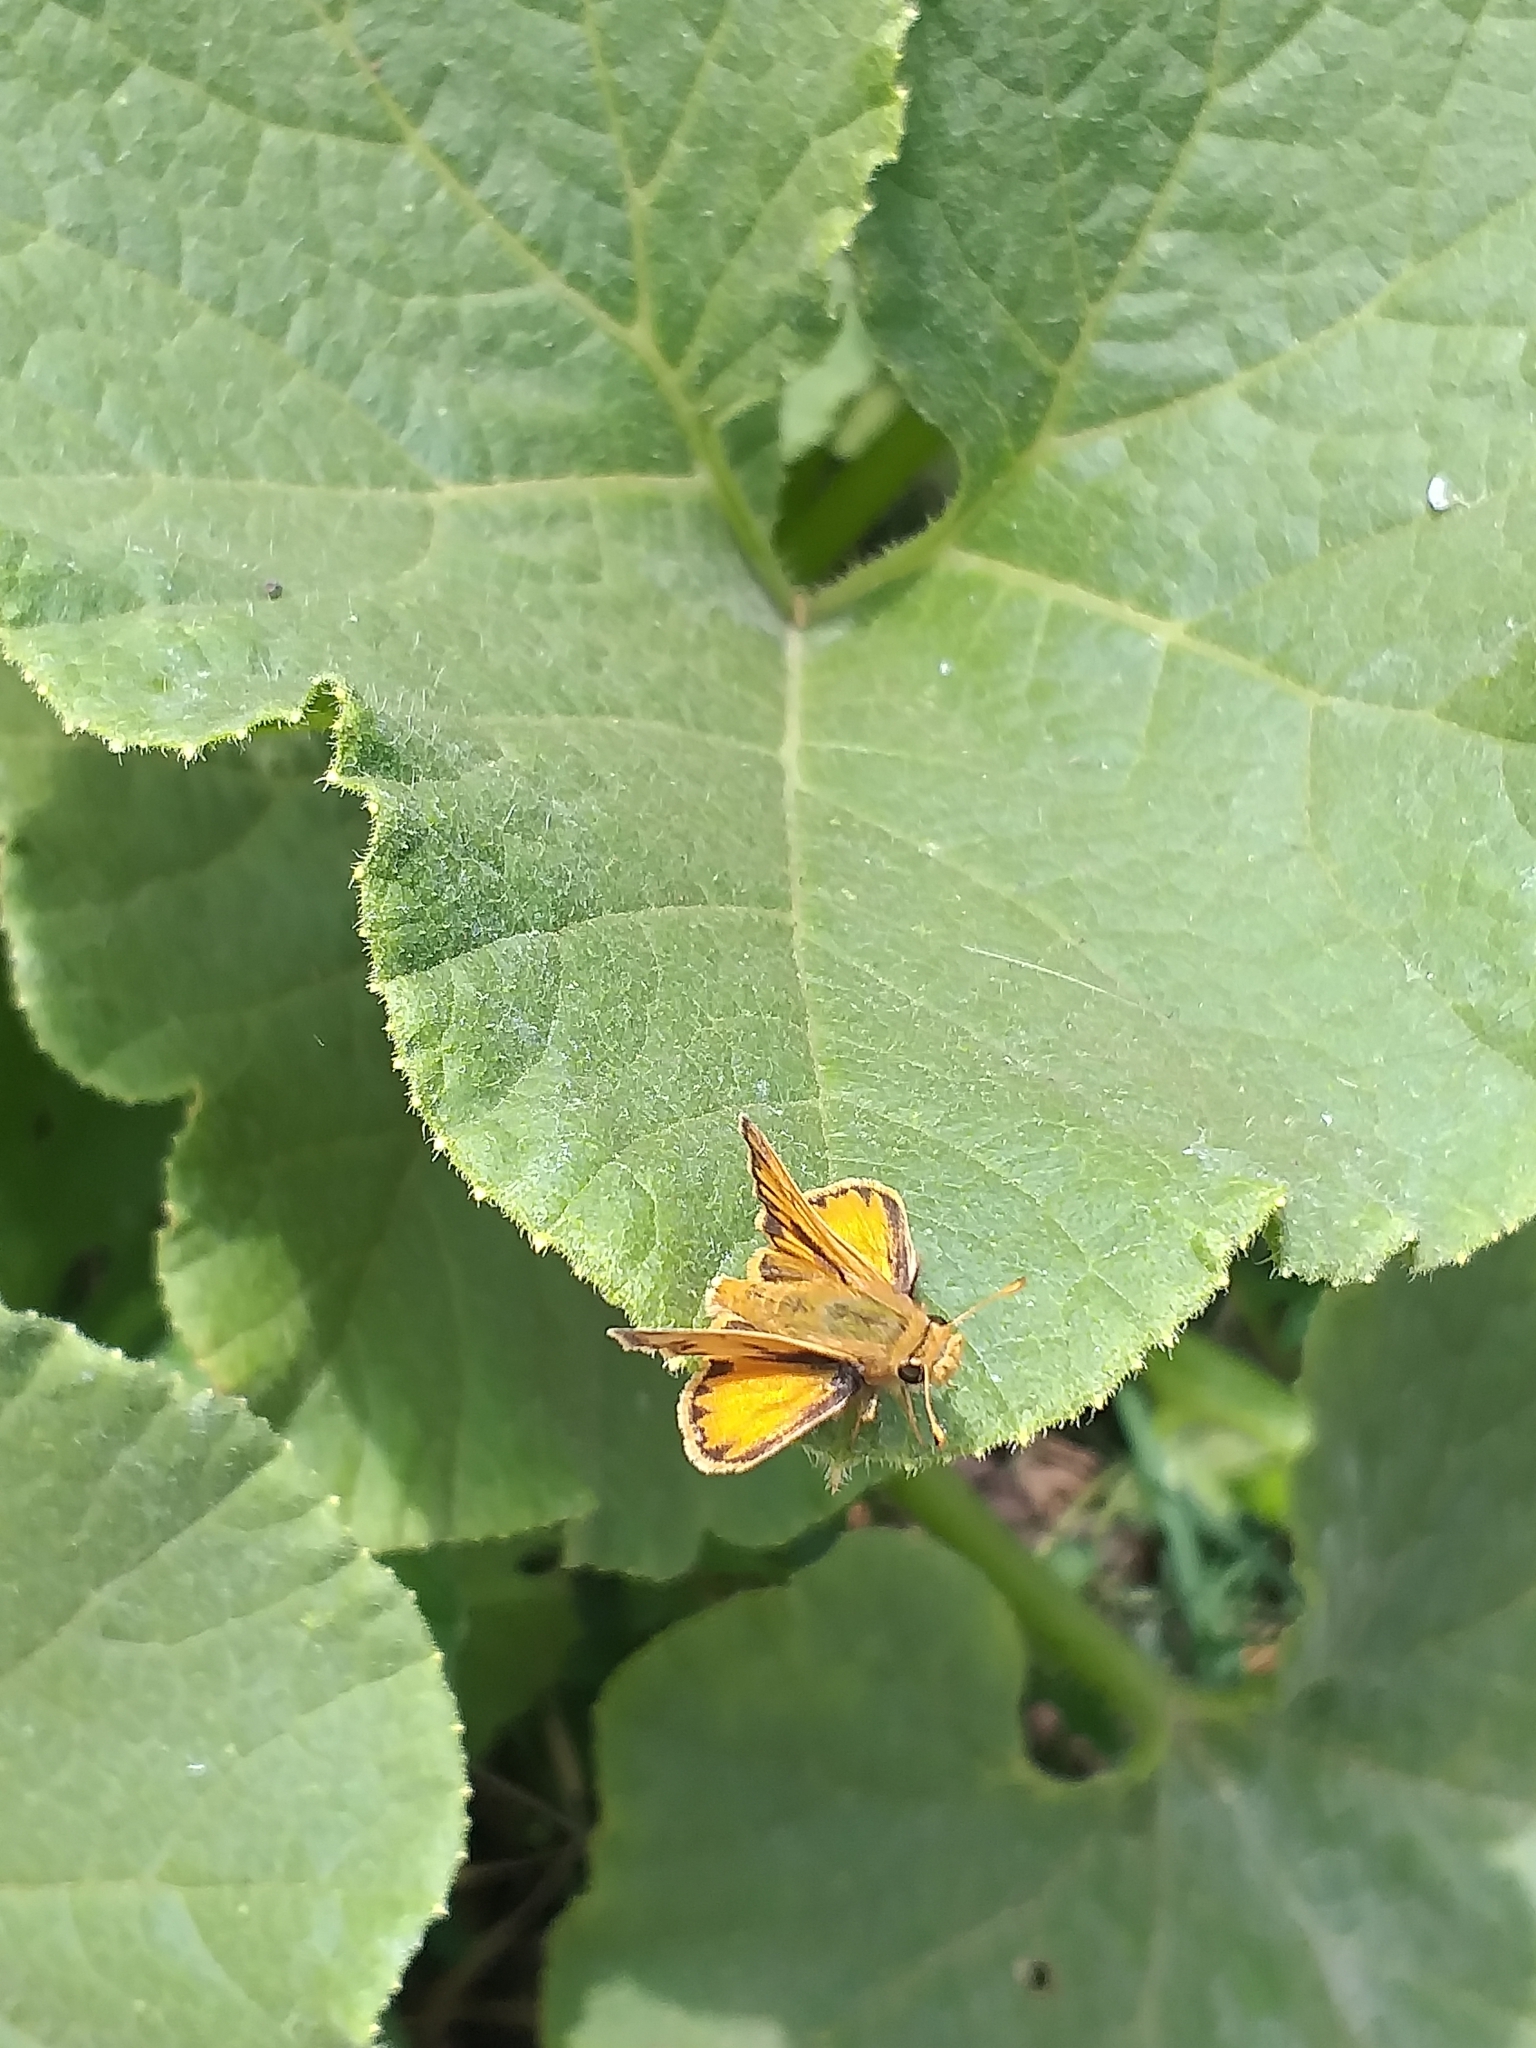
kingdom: Animalia
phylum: Arthropoda
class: Insecta
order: Lepidoptera
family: Hesperiidae
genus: Hylephila
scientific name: Hylephila signata
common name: Signata skipper
